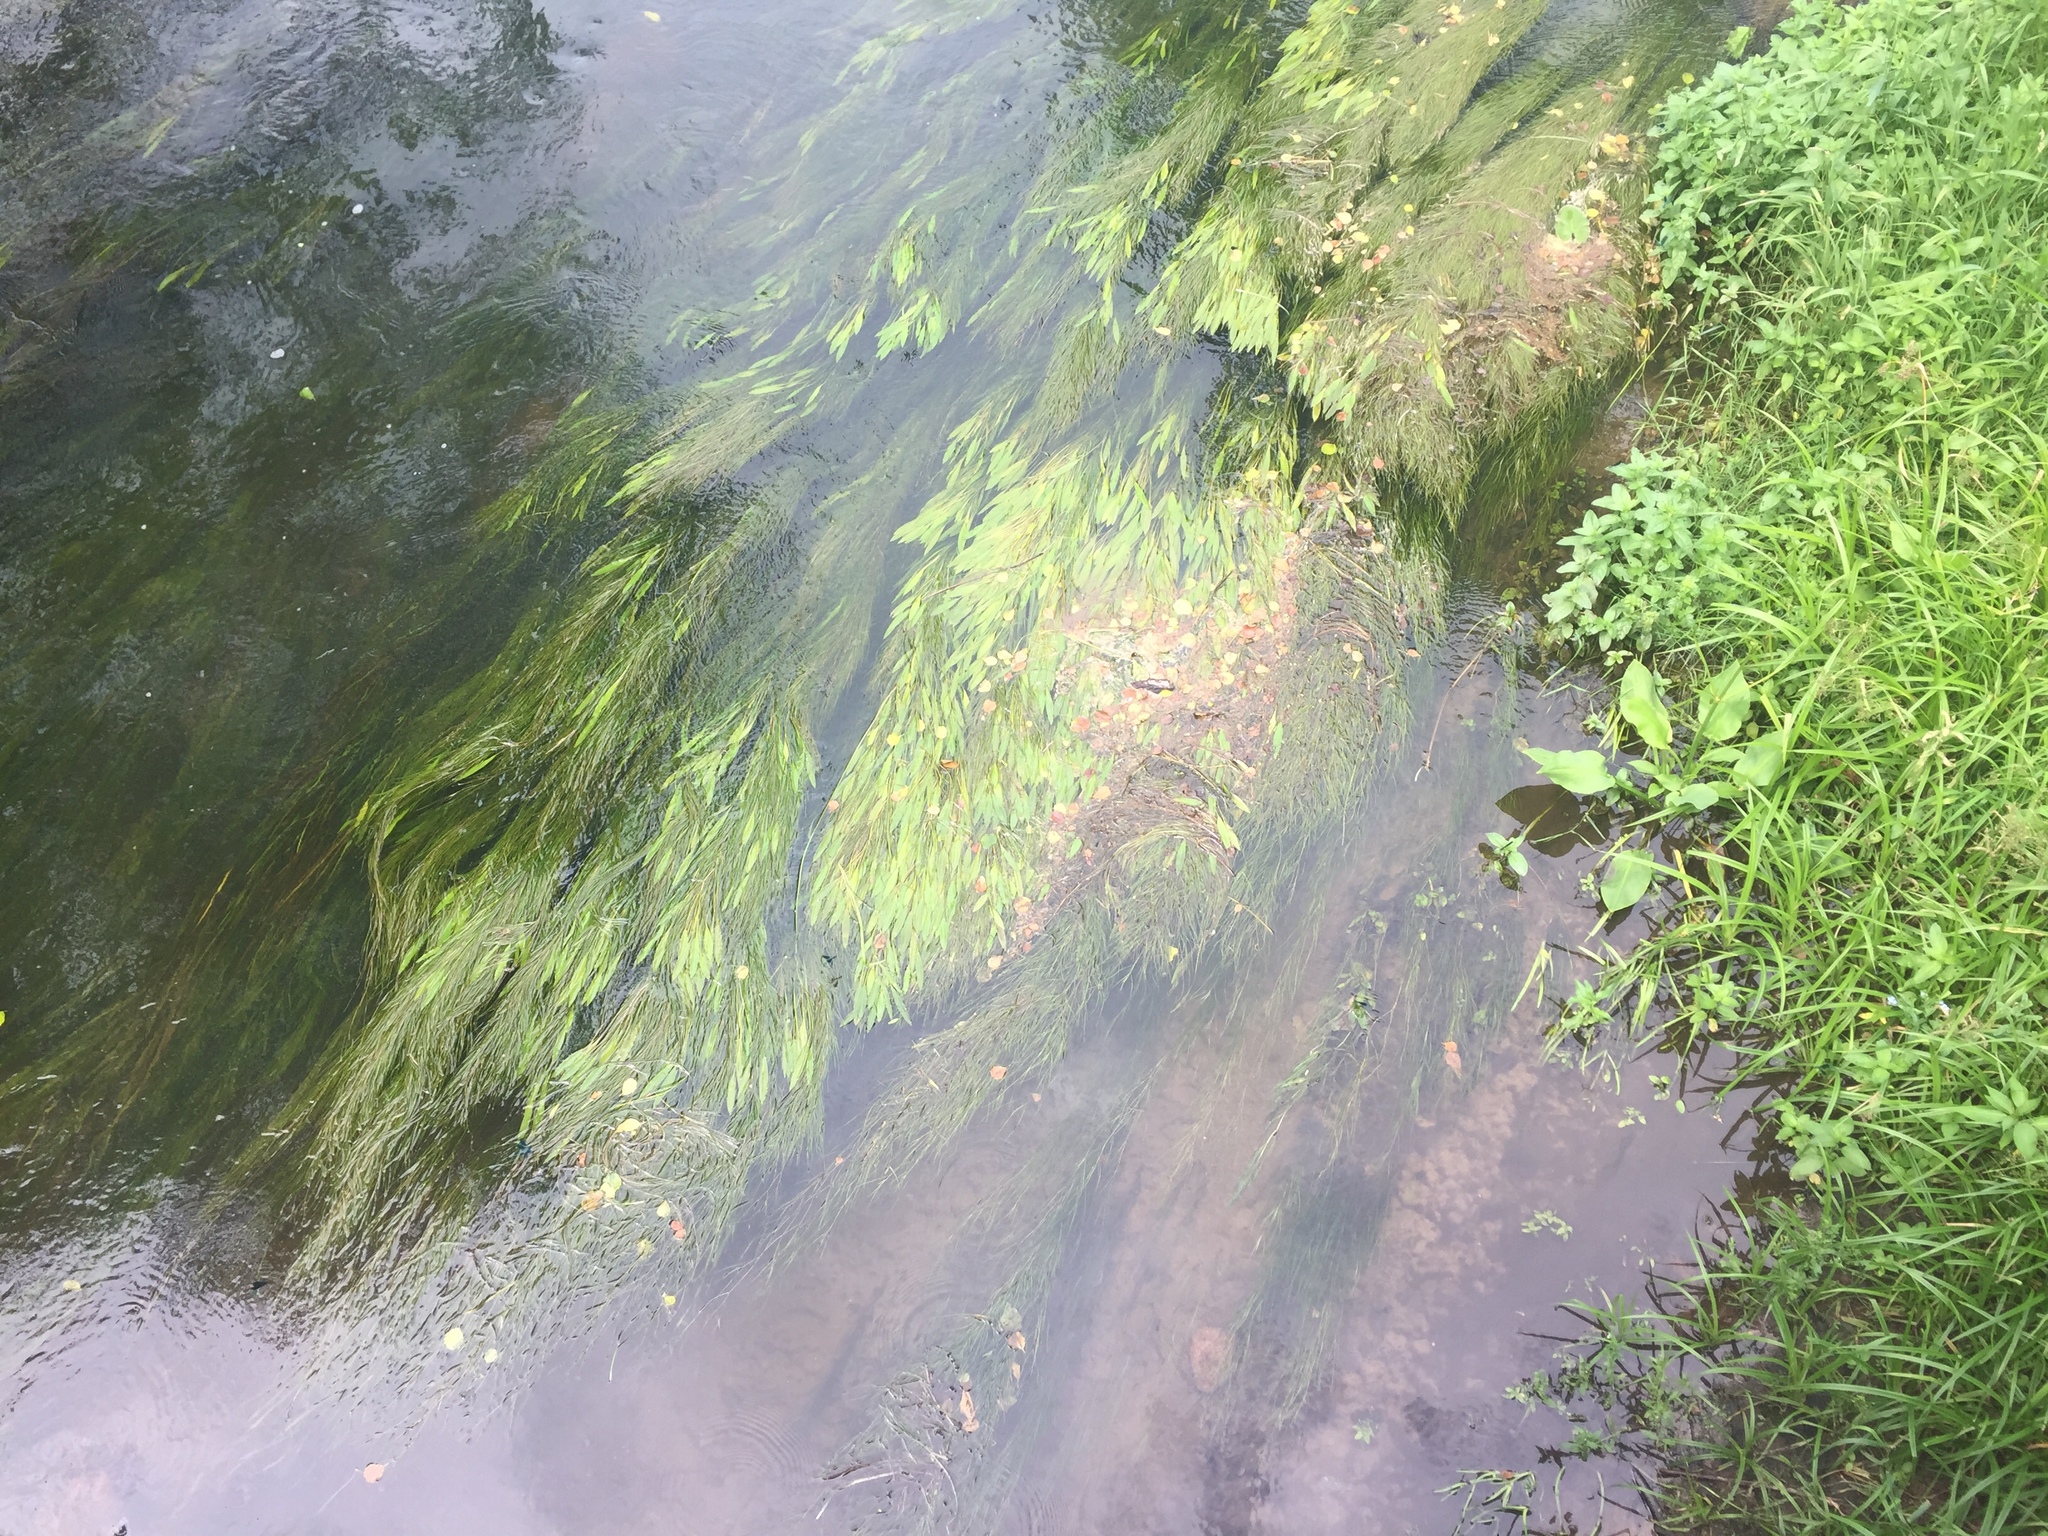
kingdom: Plantae
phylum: Tracheophyta
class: Liliopsida
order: Alismatales
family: Potamogetonaceae
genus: Potamogeton
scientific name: Potamogeton nodosus
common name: Loddon pondweed
